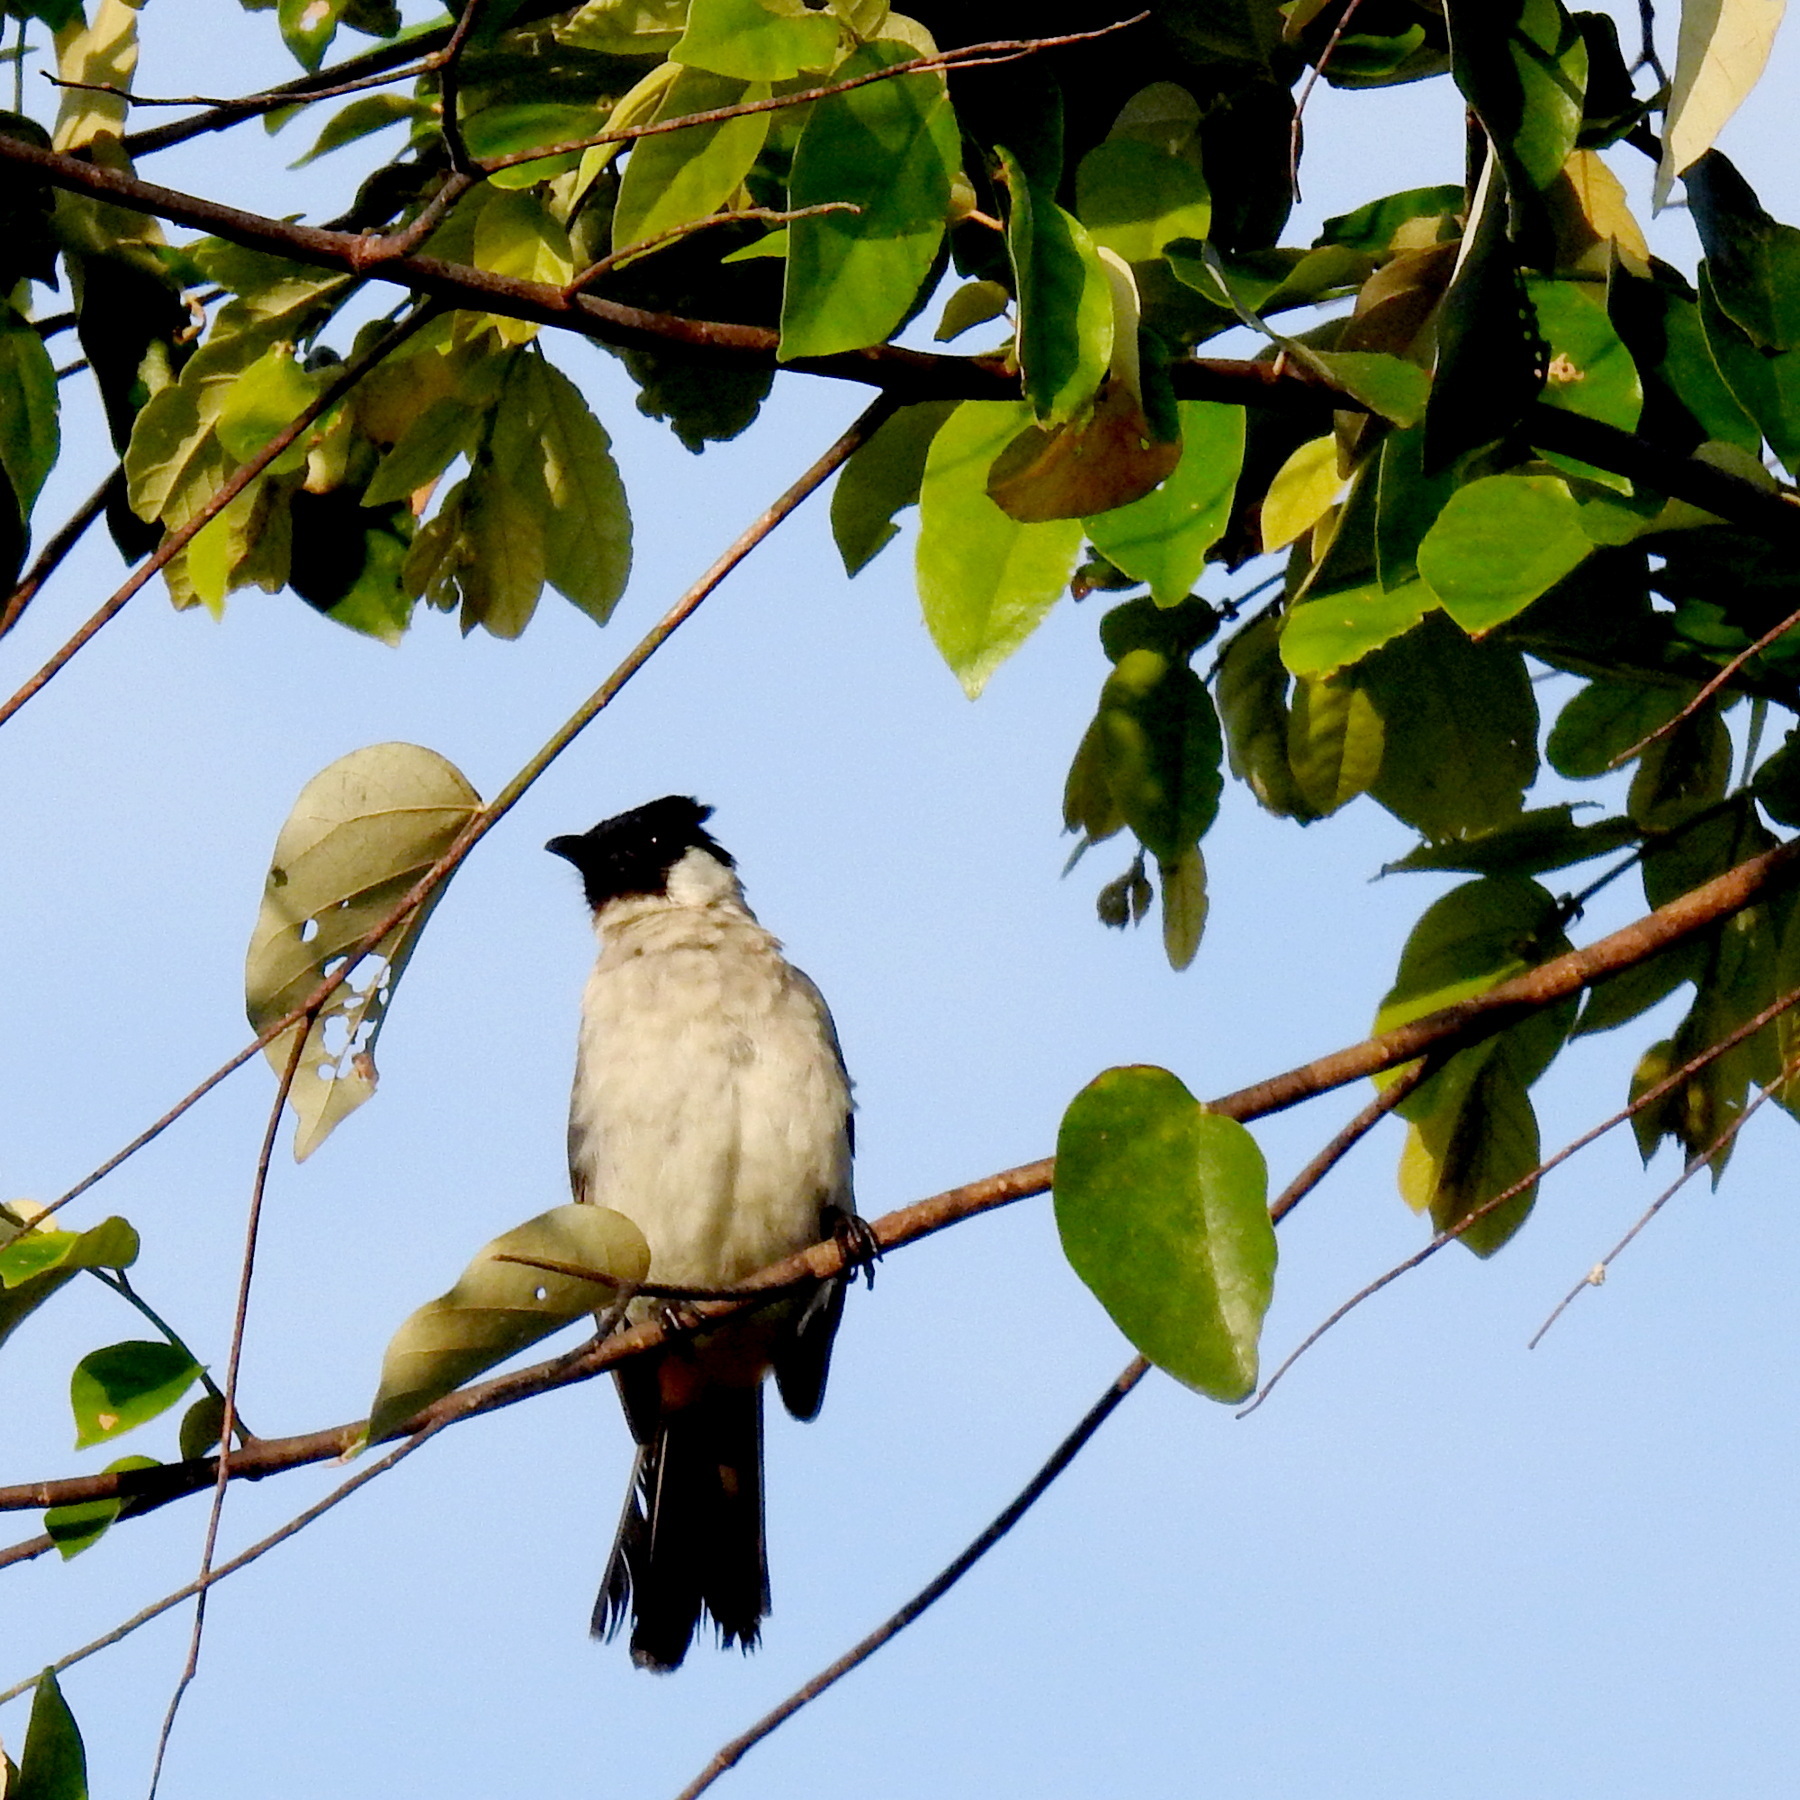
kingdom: Animalia
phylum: Chordata
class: Aves
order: Passeriformes
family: Pycnonotidae
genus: Pycnonotus
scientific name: Pycnonotus aurigaster
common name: Sooty-headed bulbul
